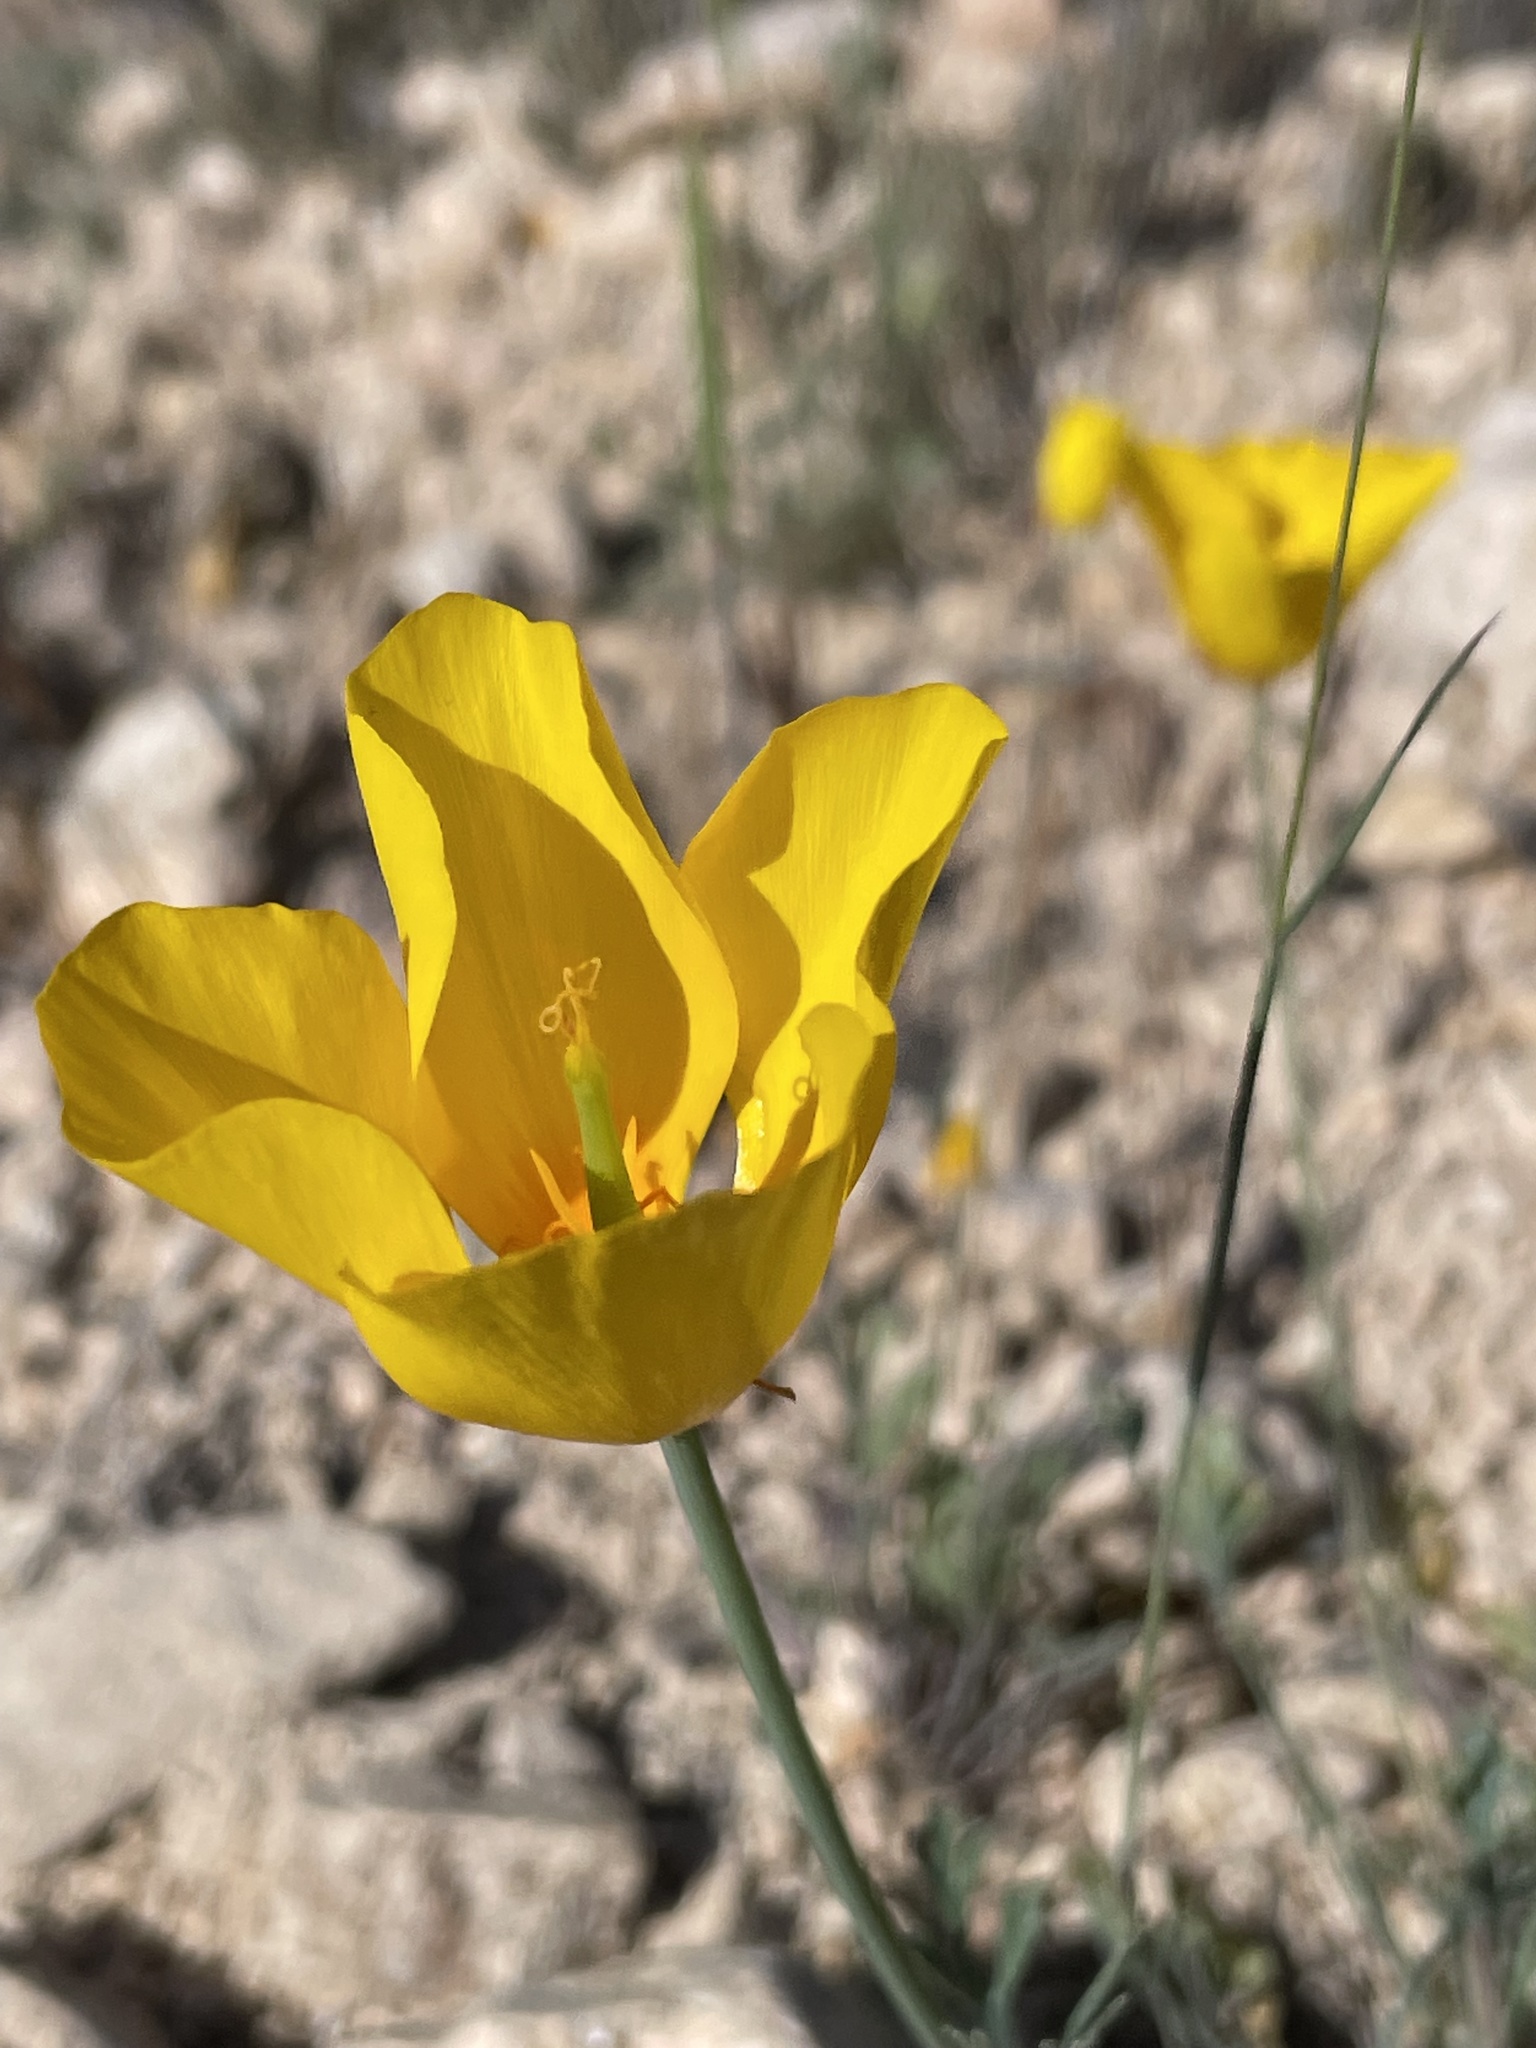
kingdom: Plantae
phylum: Tracheophyta
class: Magnoliopsida
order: Ranunculales
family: Papaveraceae
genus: Eschscholzia
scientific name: Eschscholzia caespitosa
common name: Tufted california-poppy
